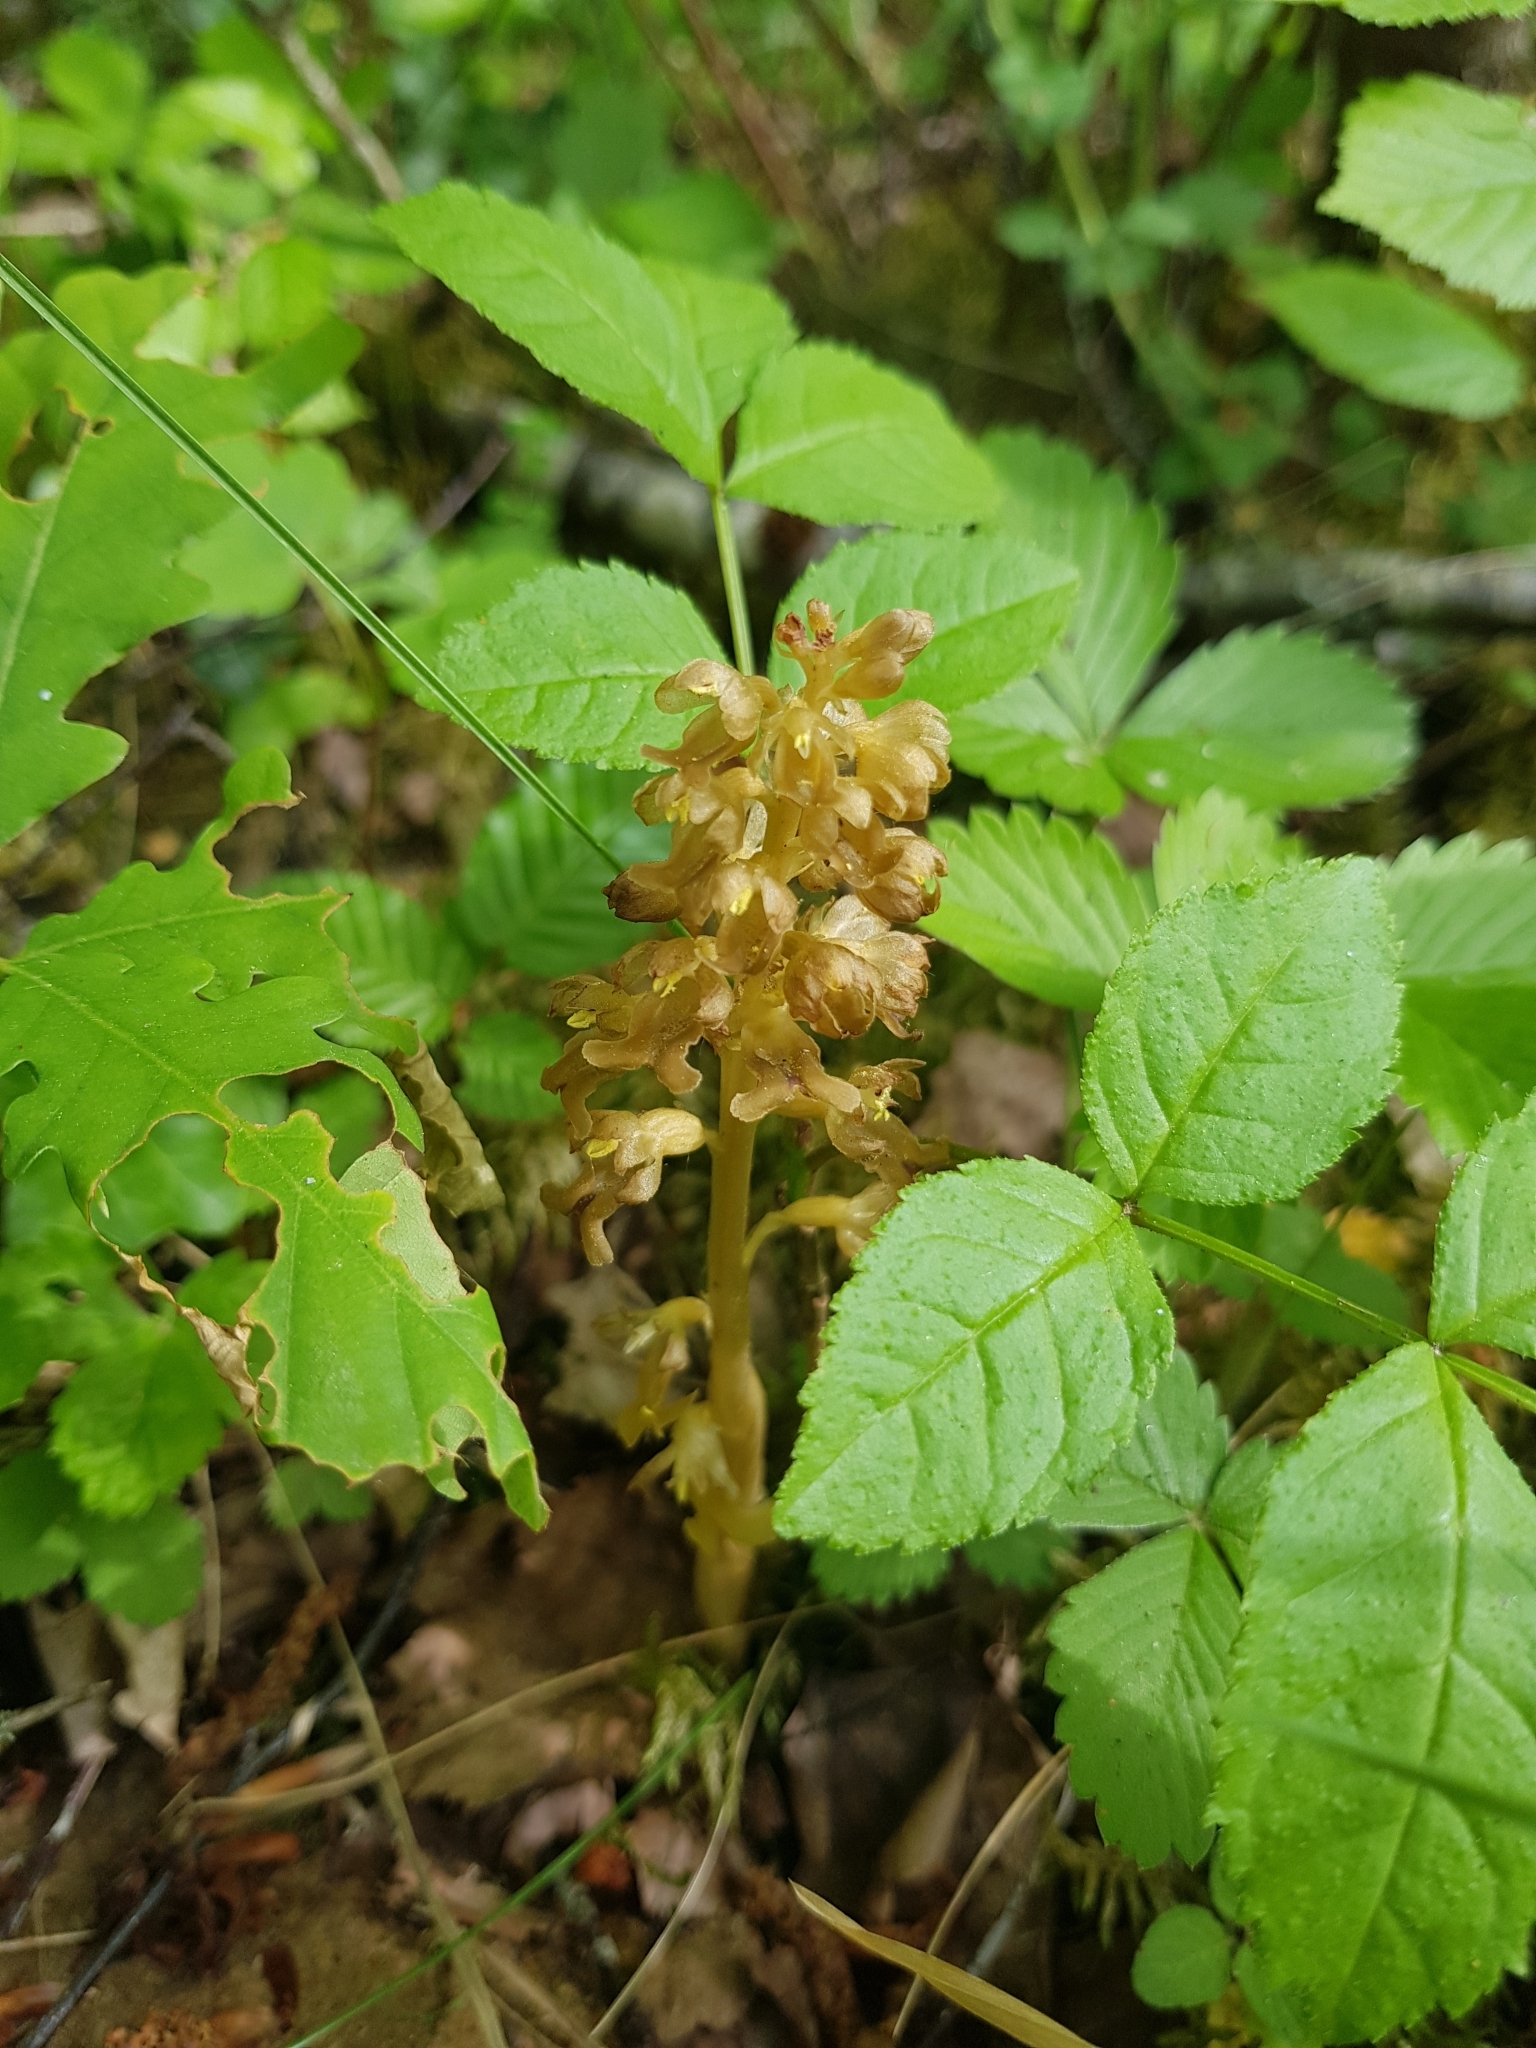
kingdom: Plantae
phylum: Tracheophyta
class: Liliopsida
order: Asparagales
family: Orchidaceae
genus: Neottia
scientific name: Neottia nidus-avis
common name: Bird's-nest orchid
